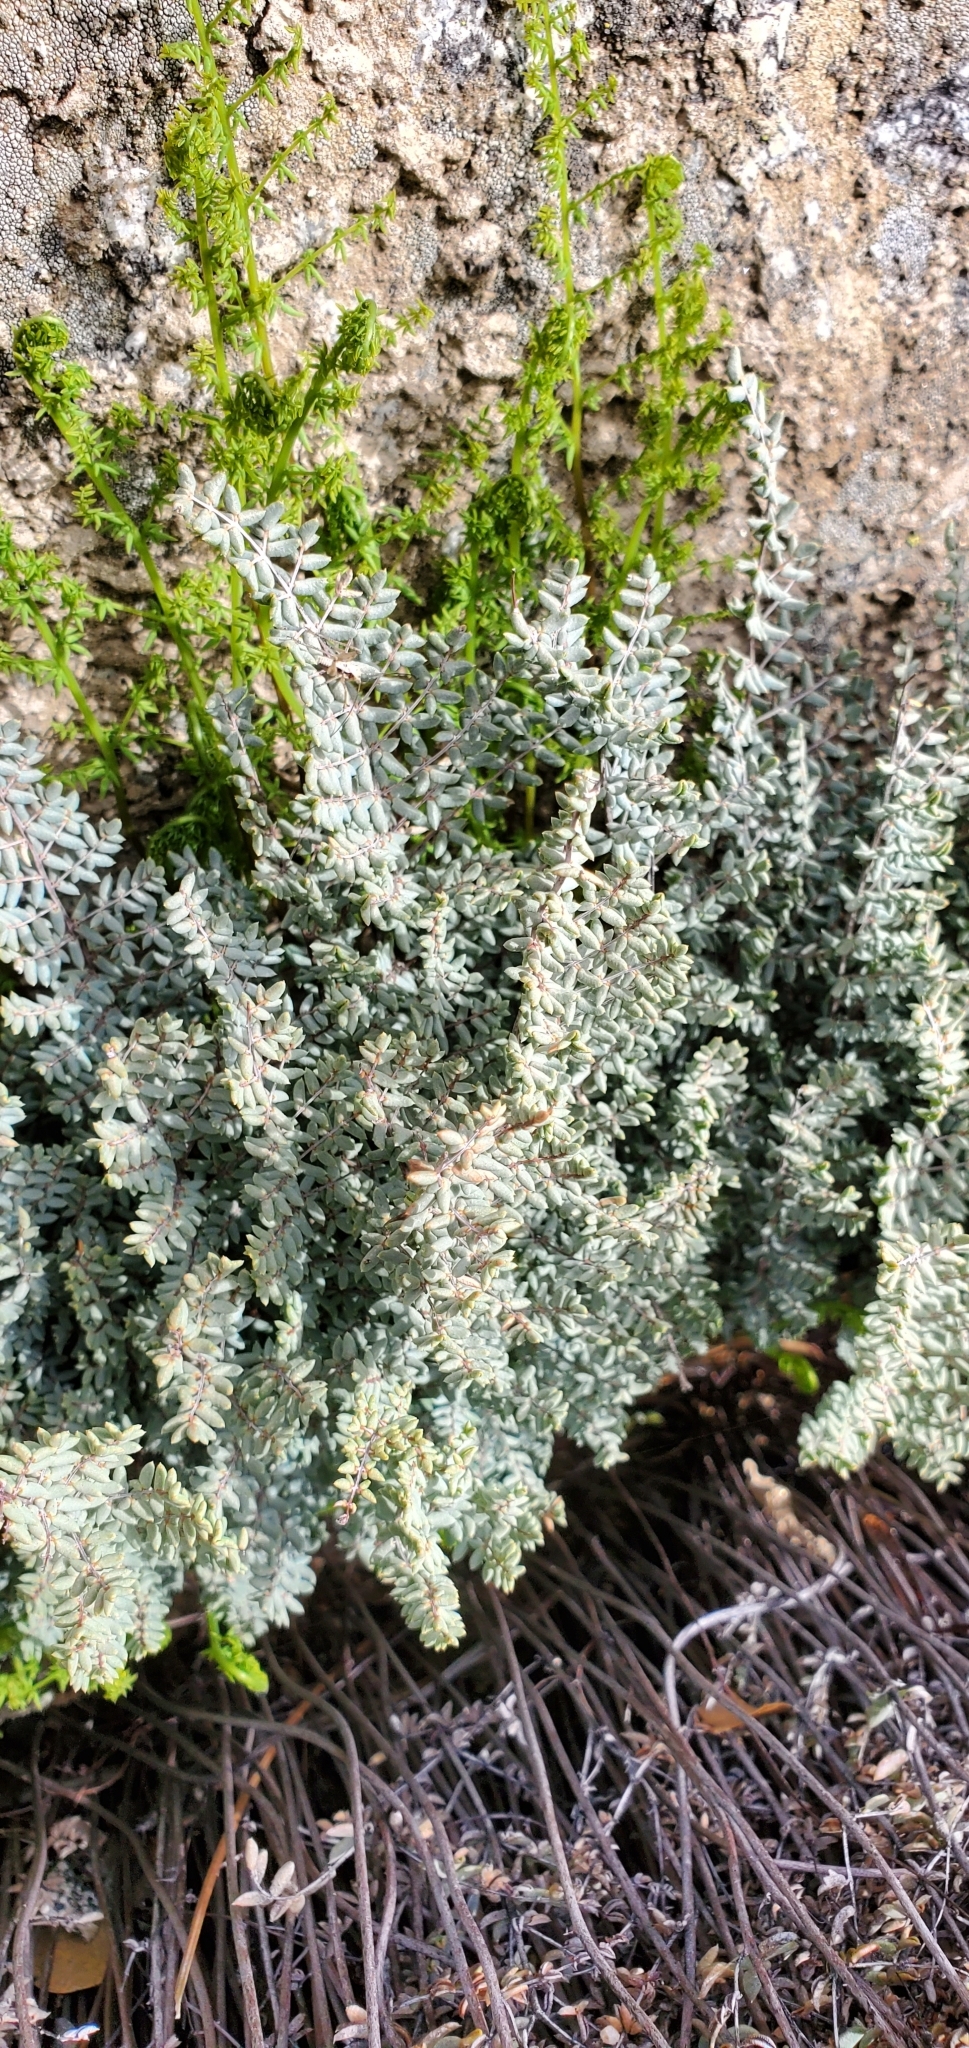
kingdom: Plantae
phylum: Tracheophyta
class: Polypodiopsida
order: Polypodiales
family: Pteridaceae
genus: Pellaea
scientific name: Pellaea mucronata
